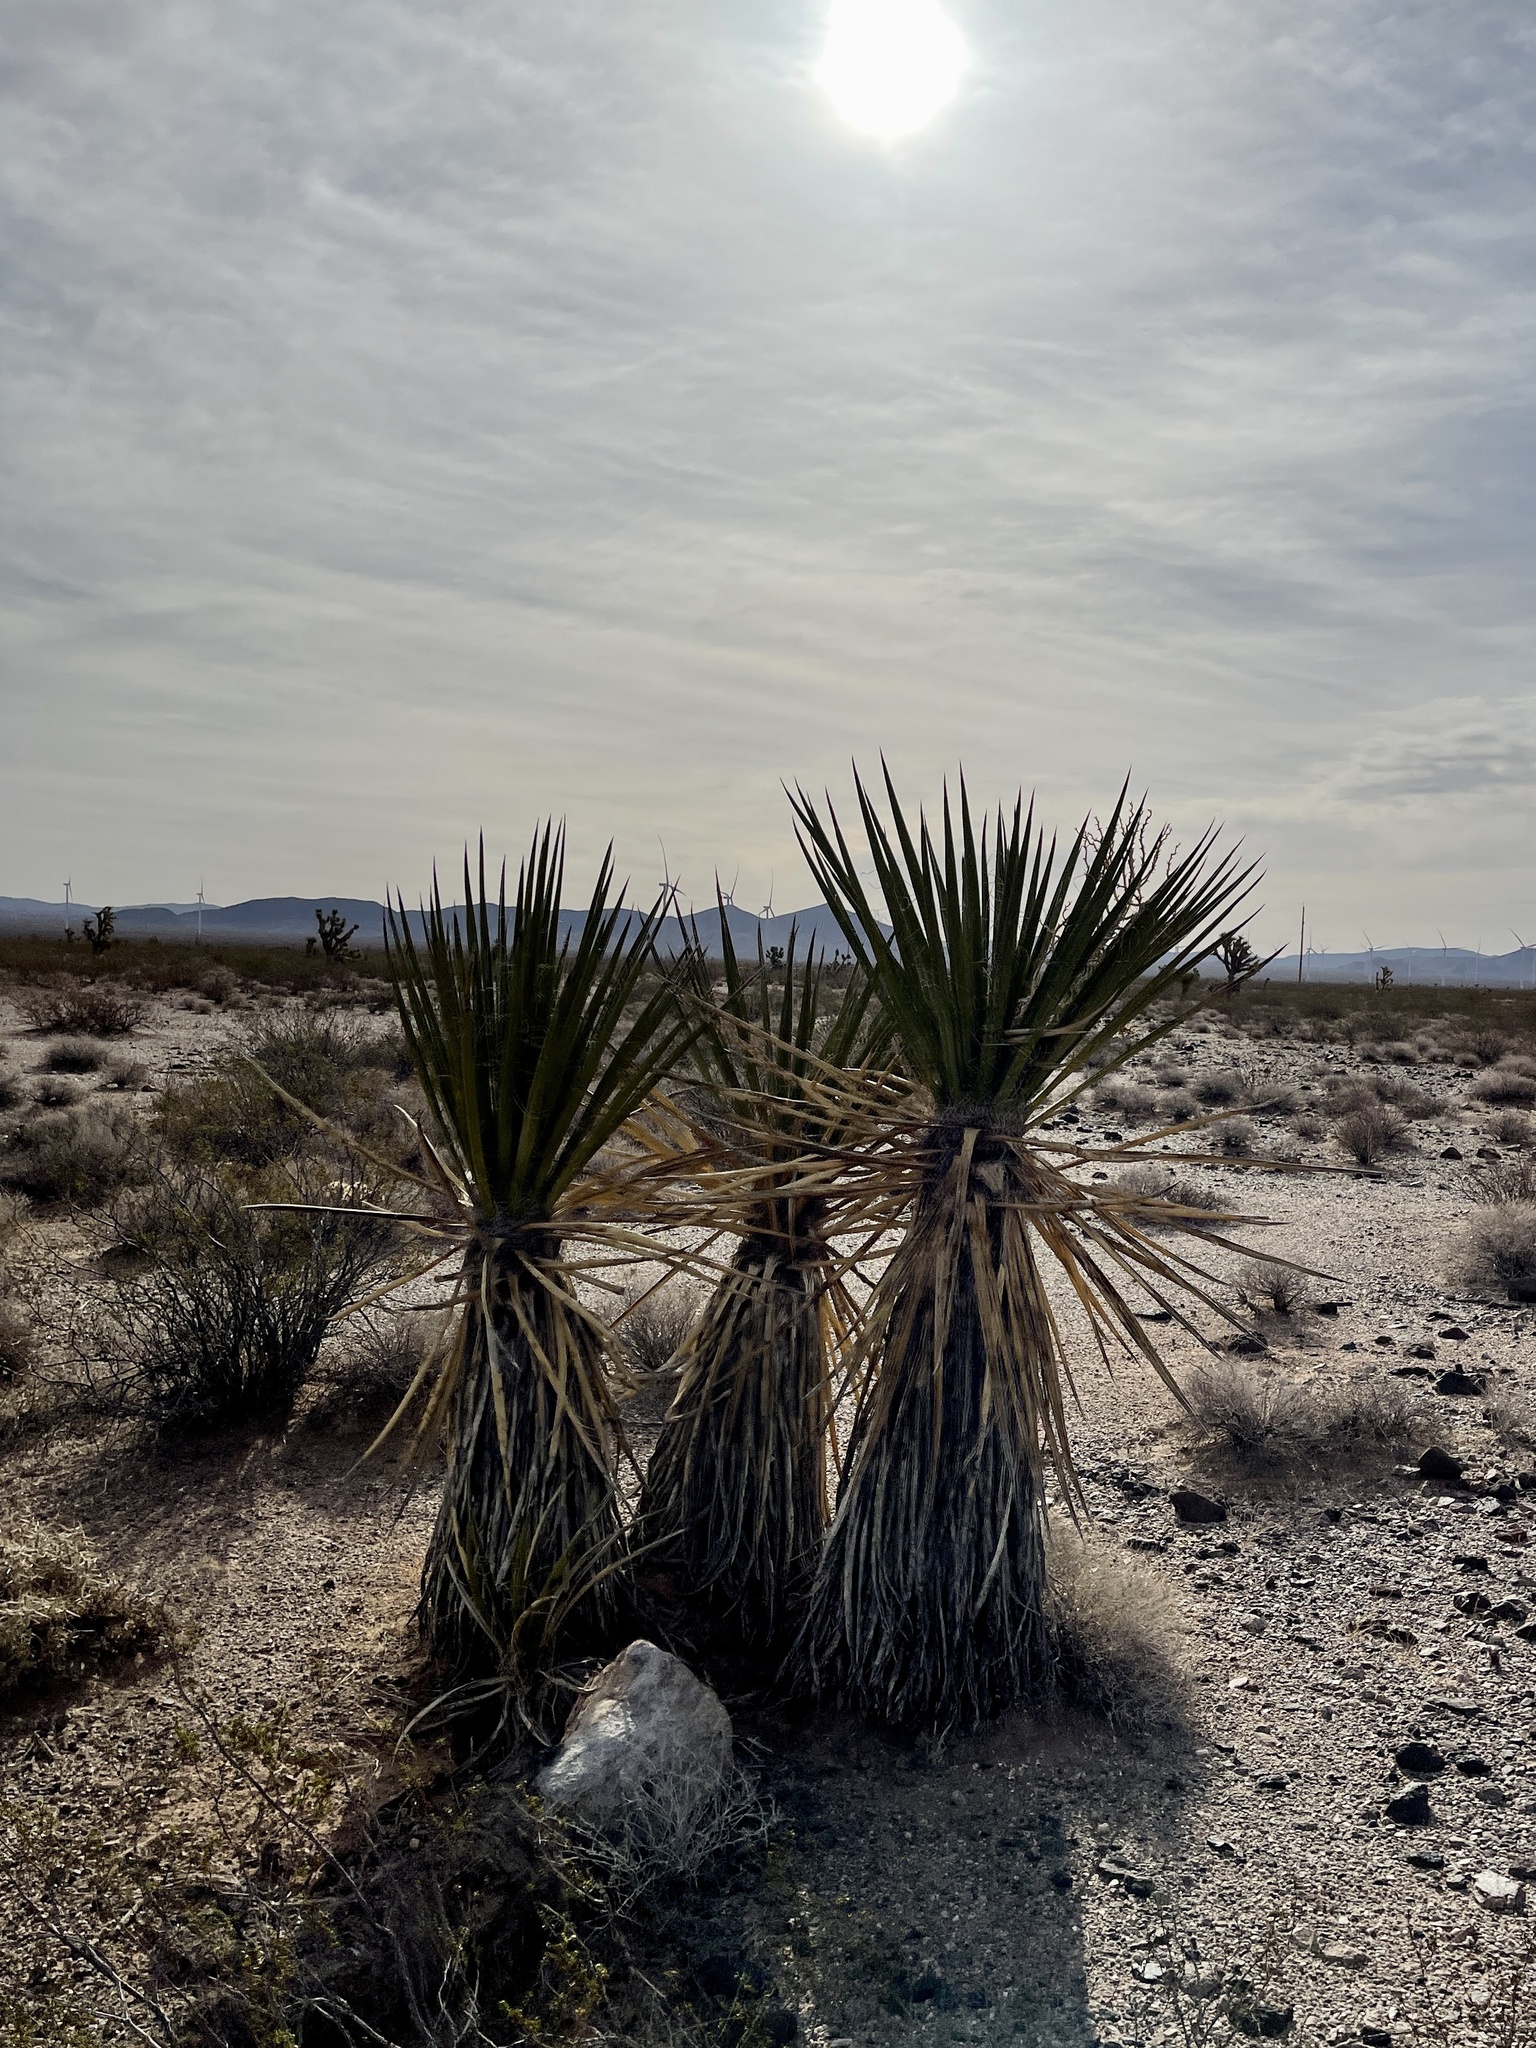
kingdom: Plantae
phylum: Tracheophyta
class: Liliopsida
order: Asparagales
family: Asparagaceae
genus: Yucca
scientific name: Yucca schidigera
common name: Mojave yucca
